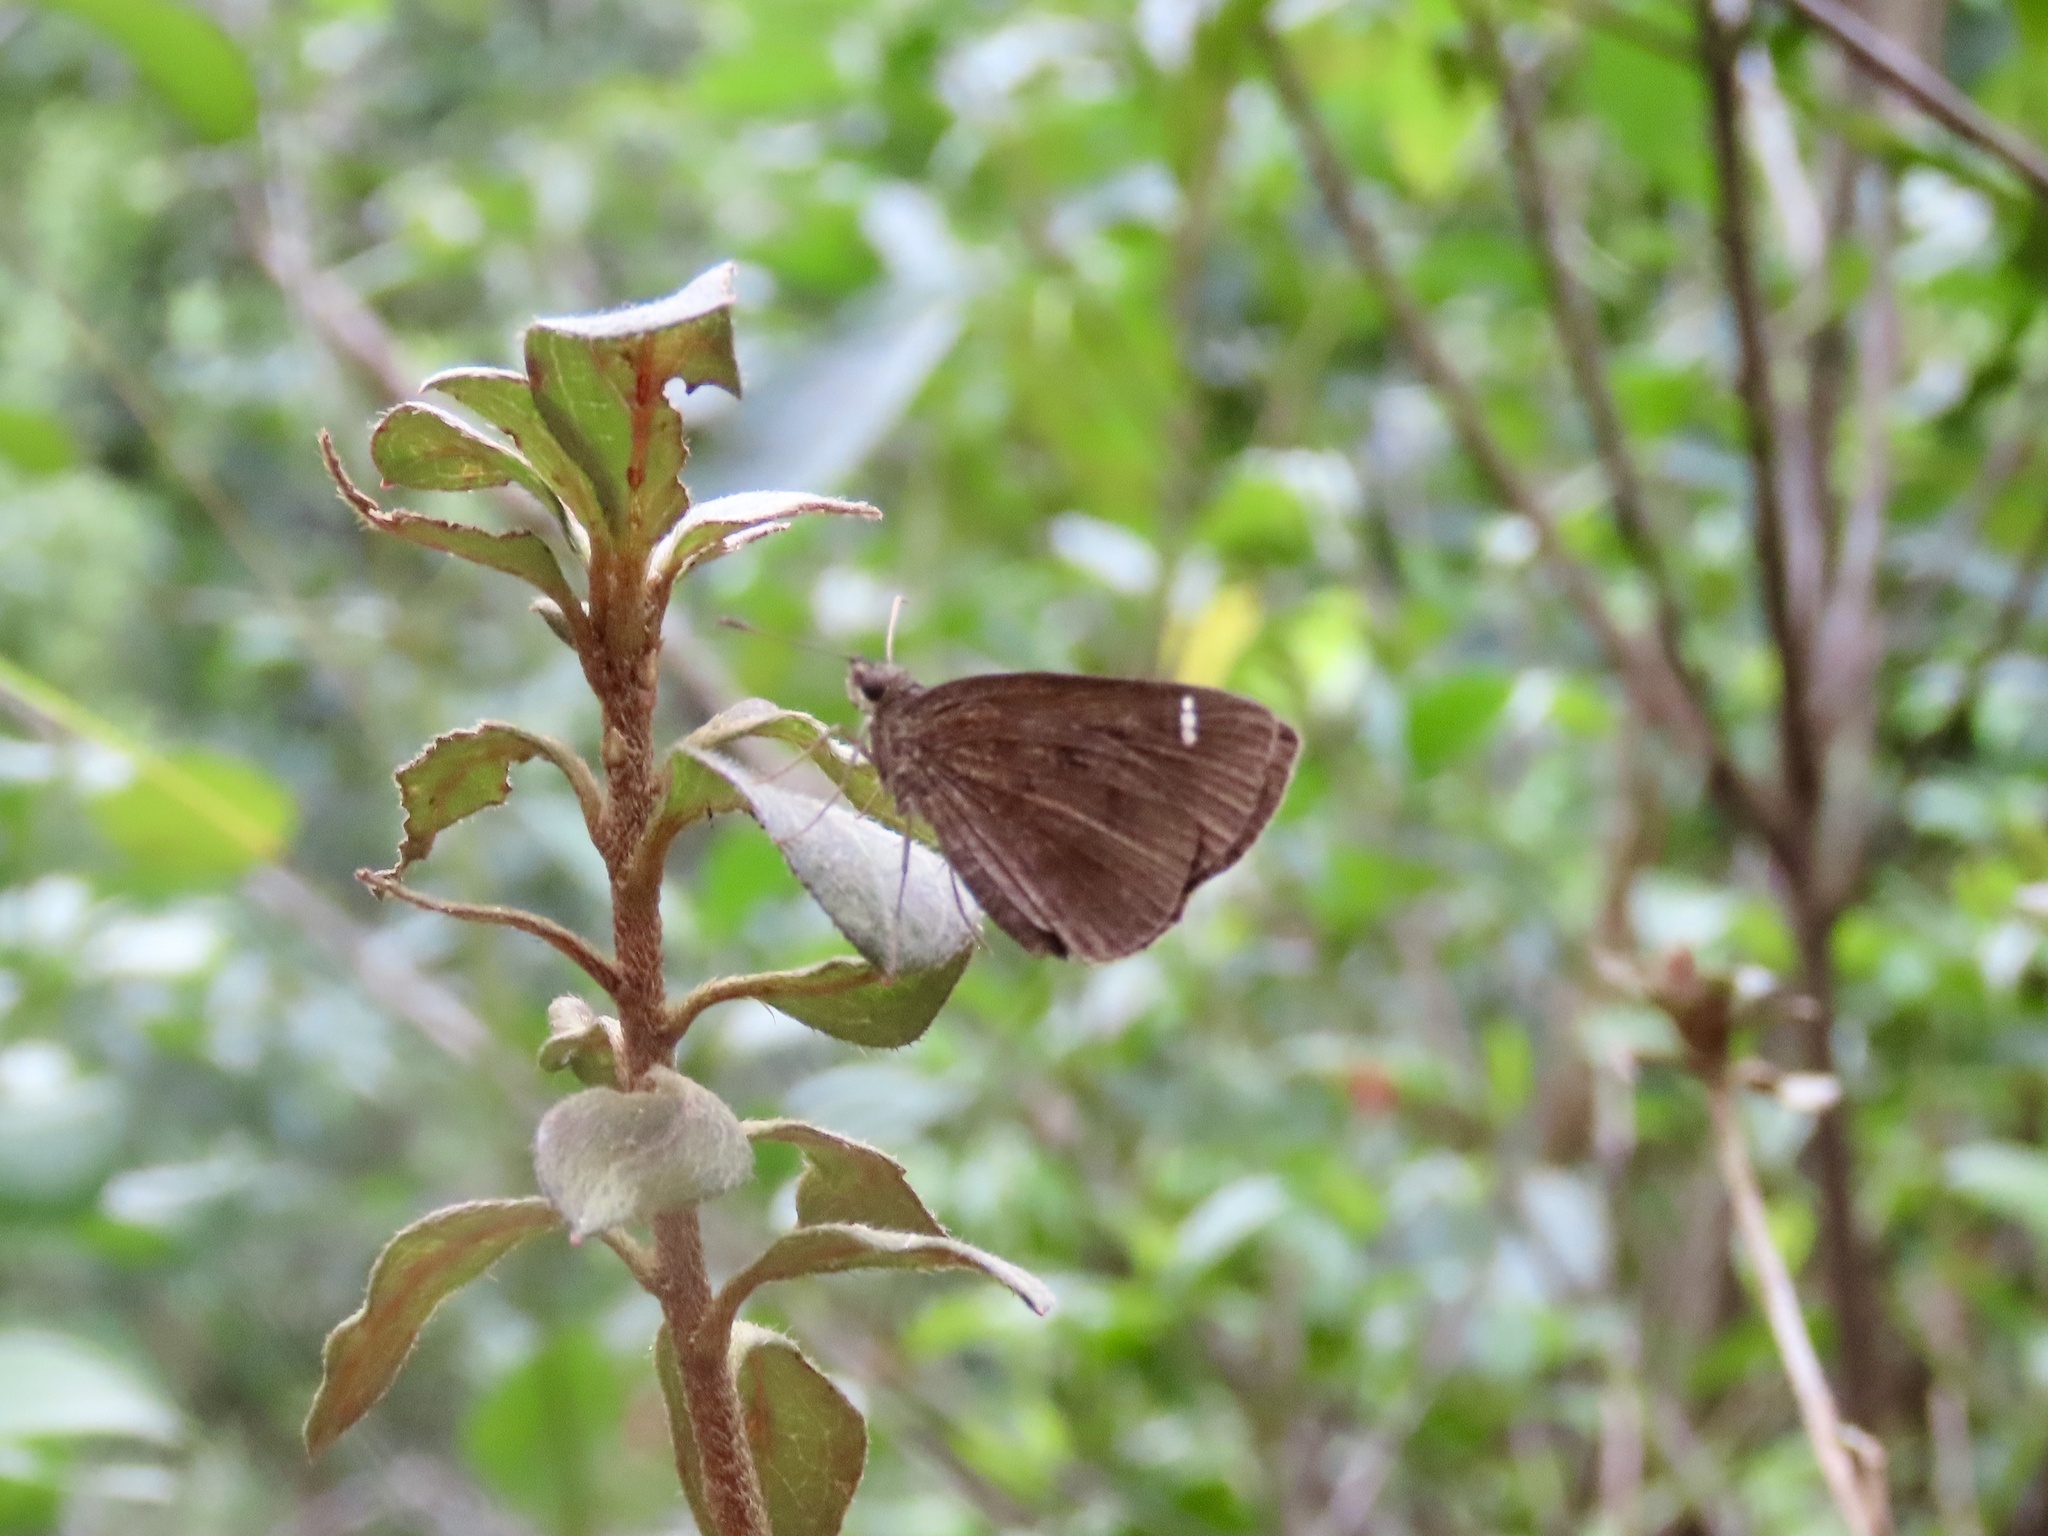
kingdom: Animalia
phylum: Arthropoda
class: Insecta
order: Lepidoptera
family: Hesperiidae
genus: Astictopterus
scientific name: Astictopterus jama
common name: Forest hopper
